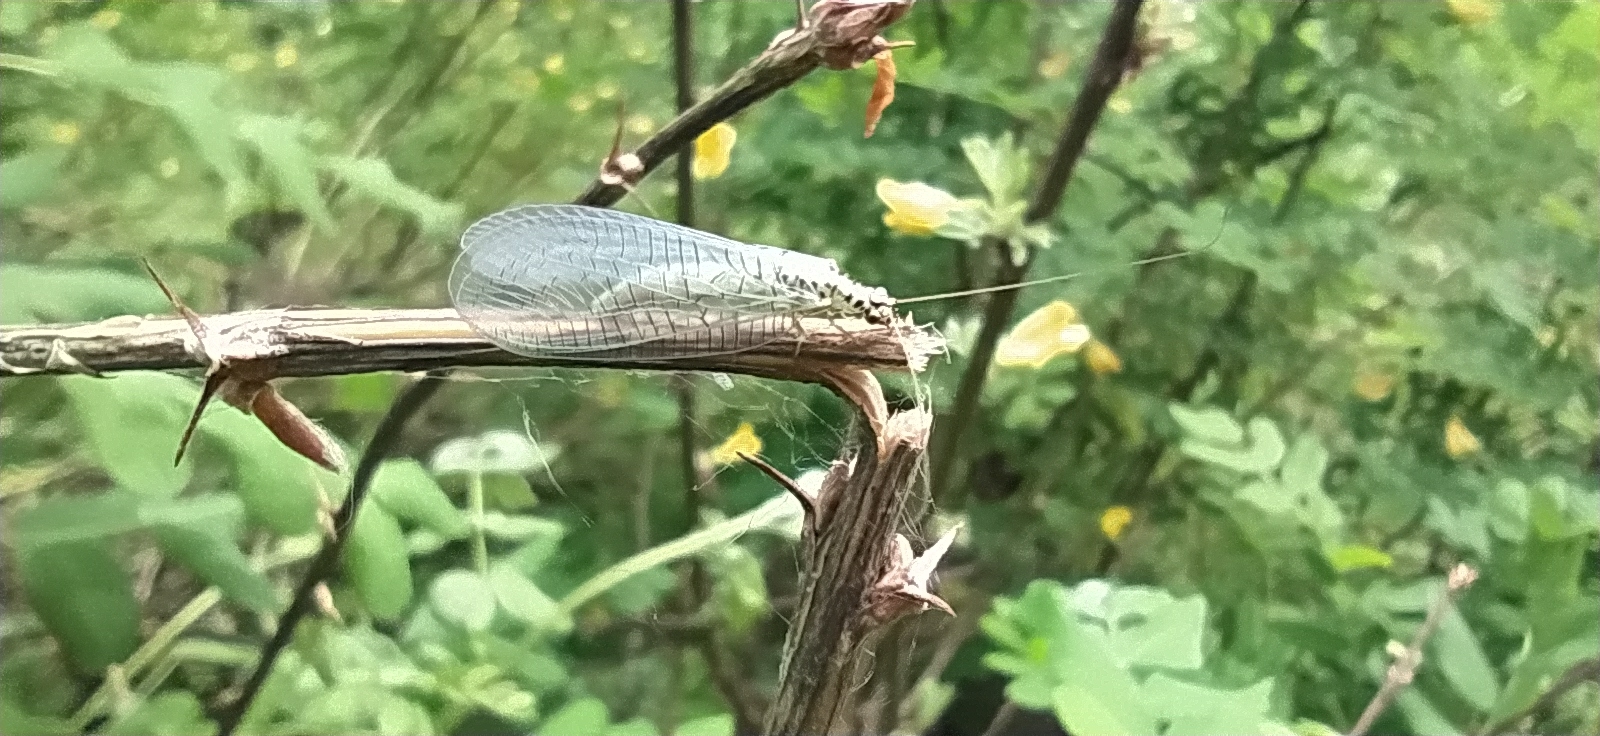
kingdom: Animalia
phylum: Arthropoda
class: Insecta
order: Neuroptera
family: Chrysopidae
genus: Chrysopa
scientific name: Chrysopa perla
